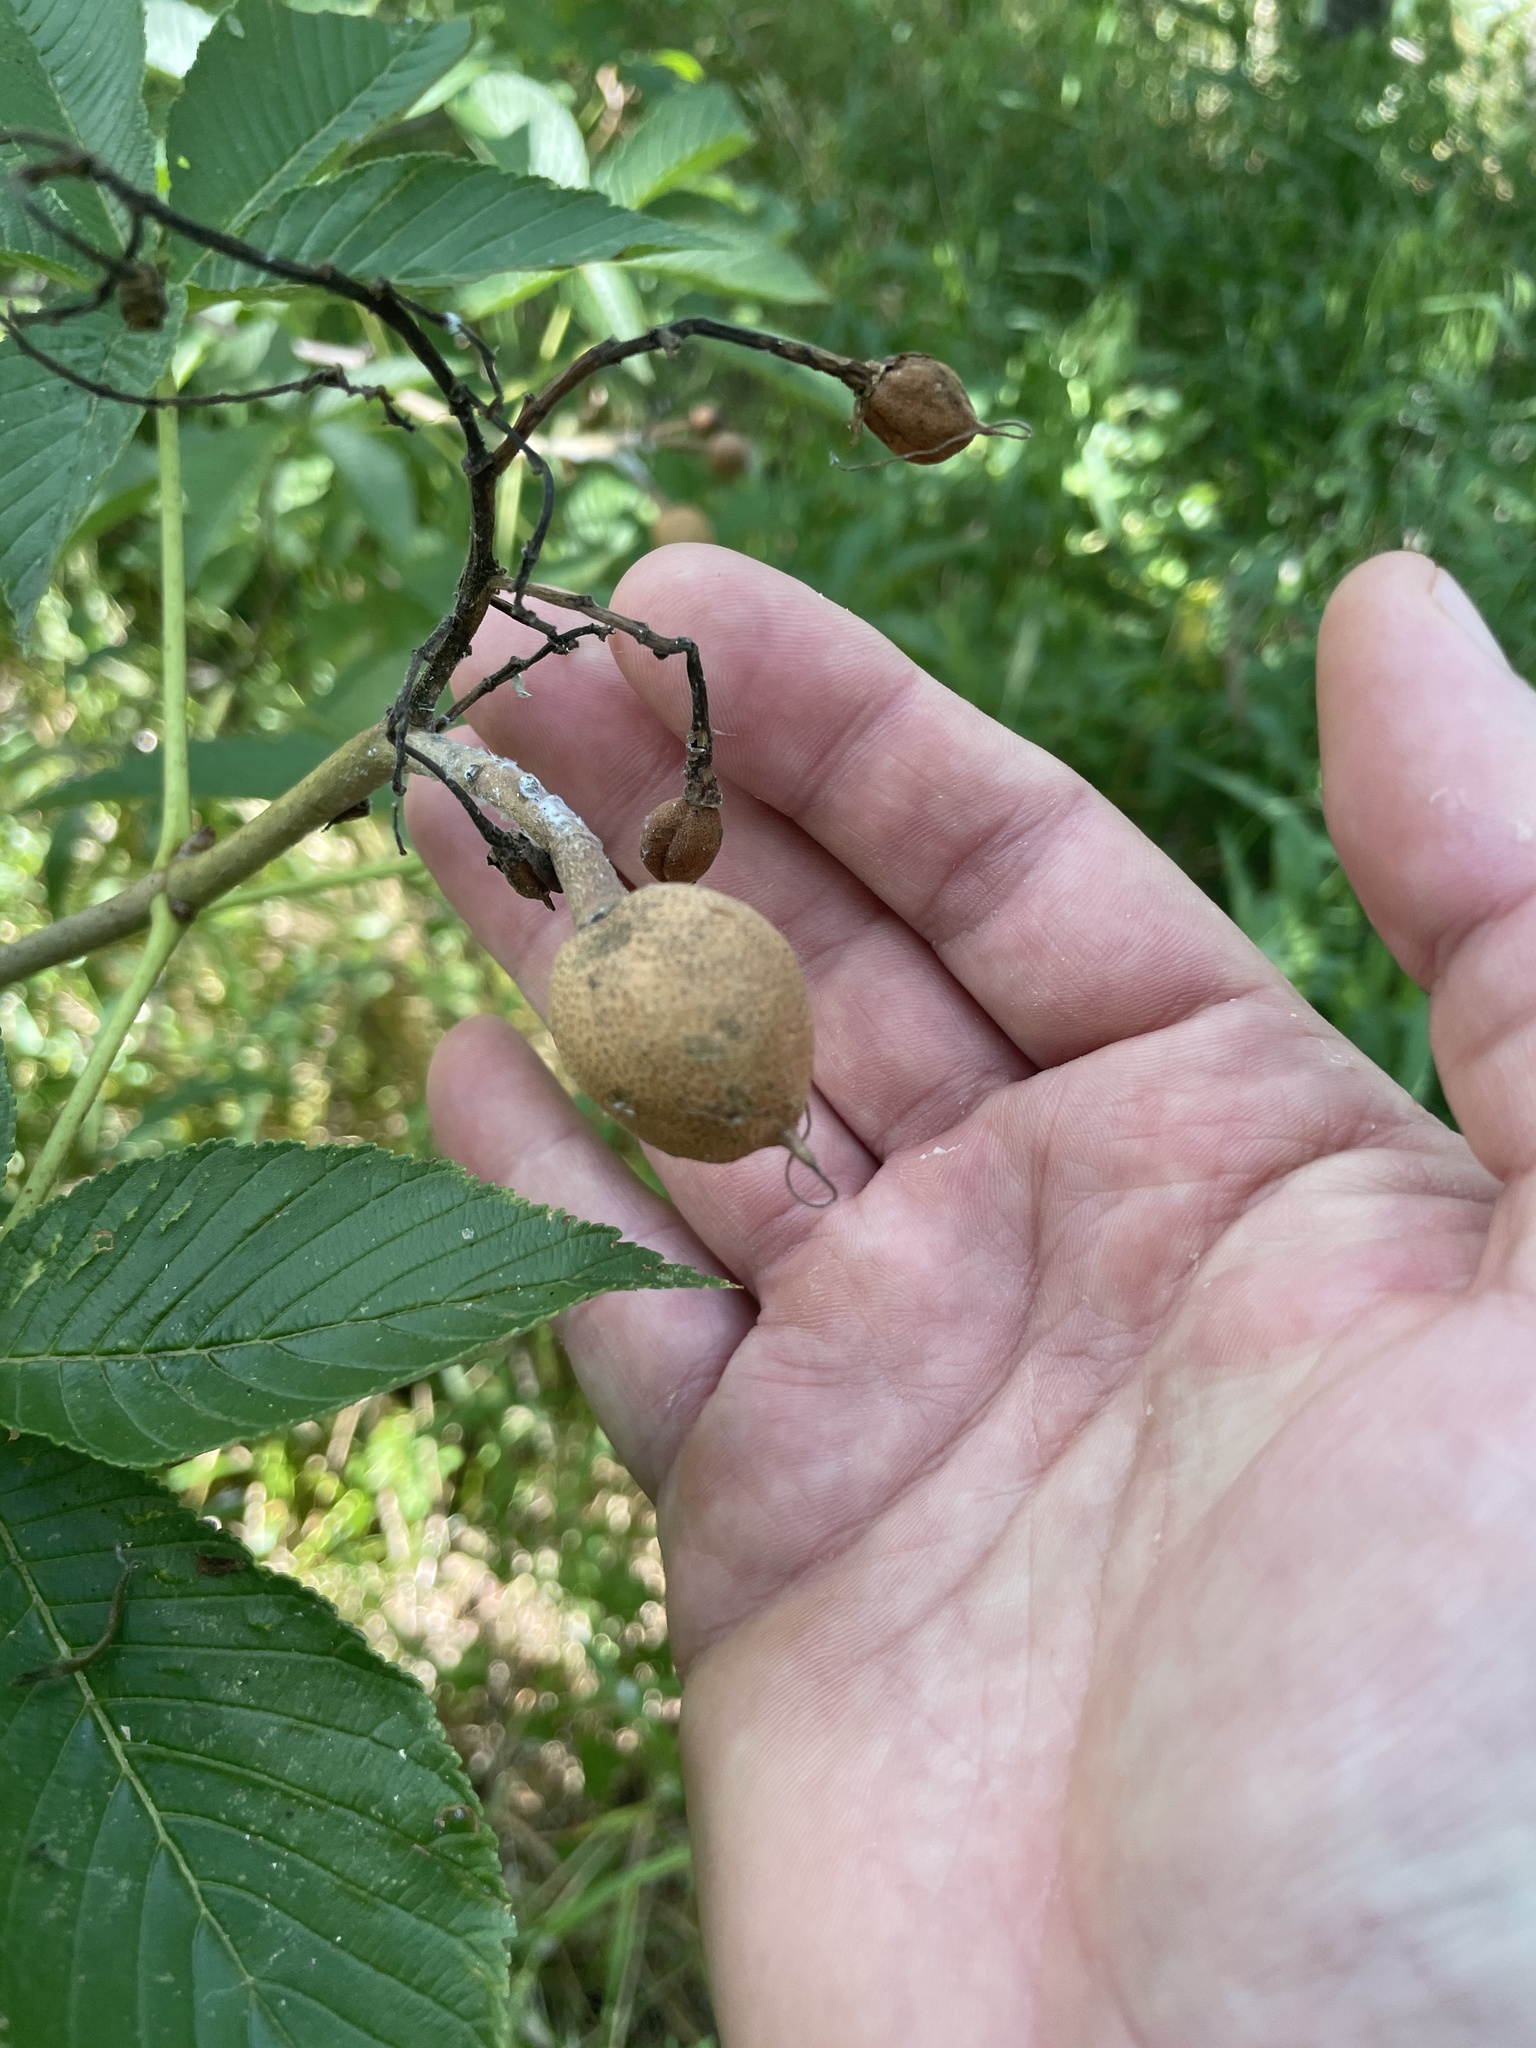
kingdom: Plantae
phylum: Tracheophyta
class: Magnoliopsida
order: Sapindales
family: Sapindaceae
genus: Aesculus
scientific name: Aesculus pavia
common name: Red buckeye
